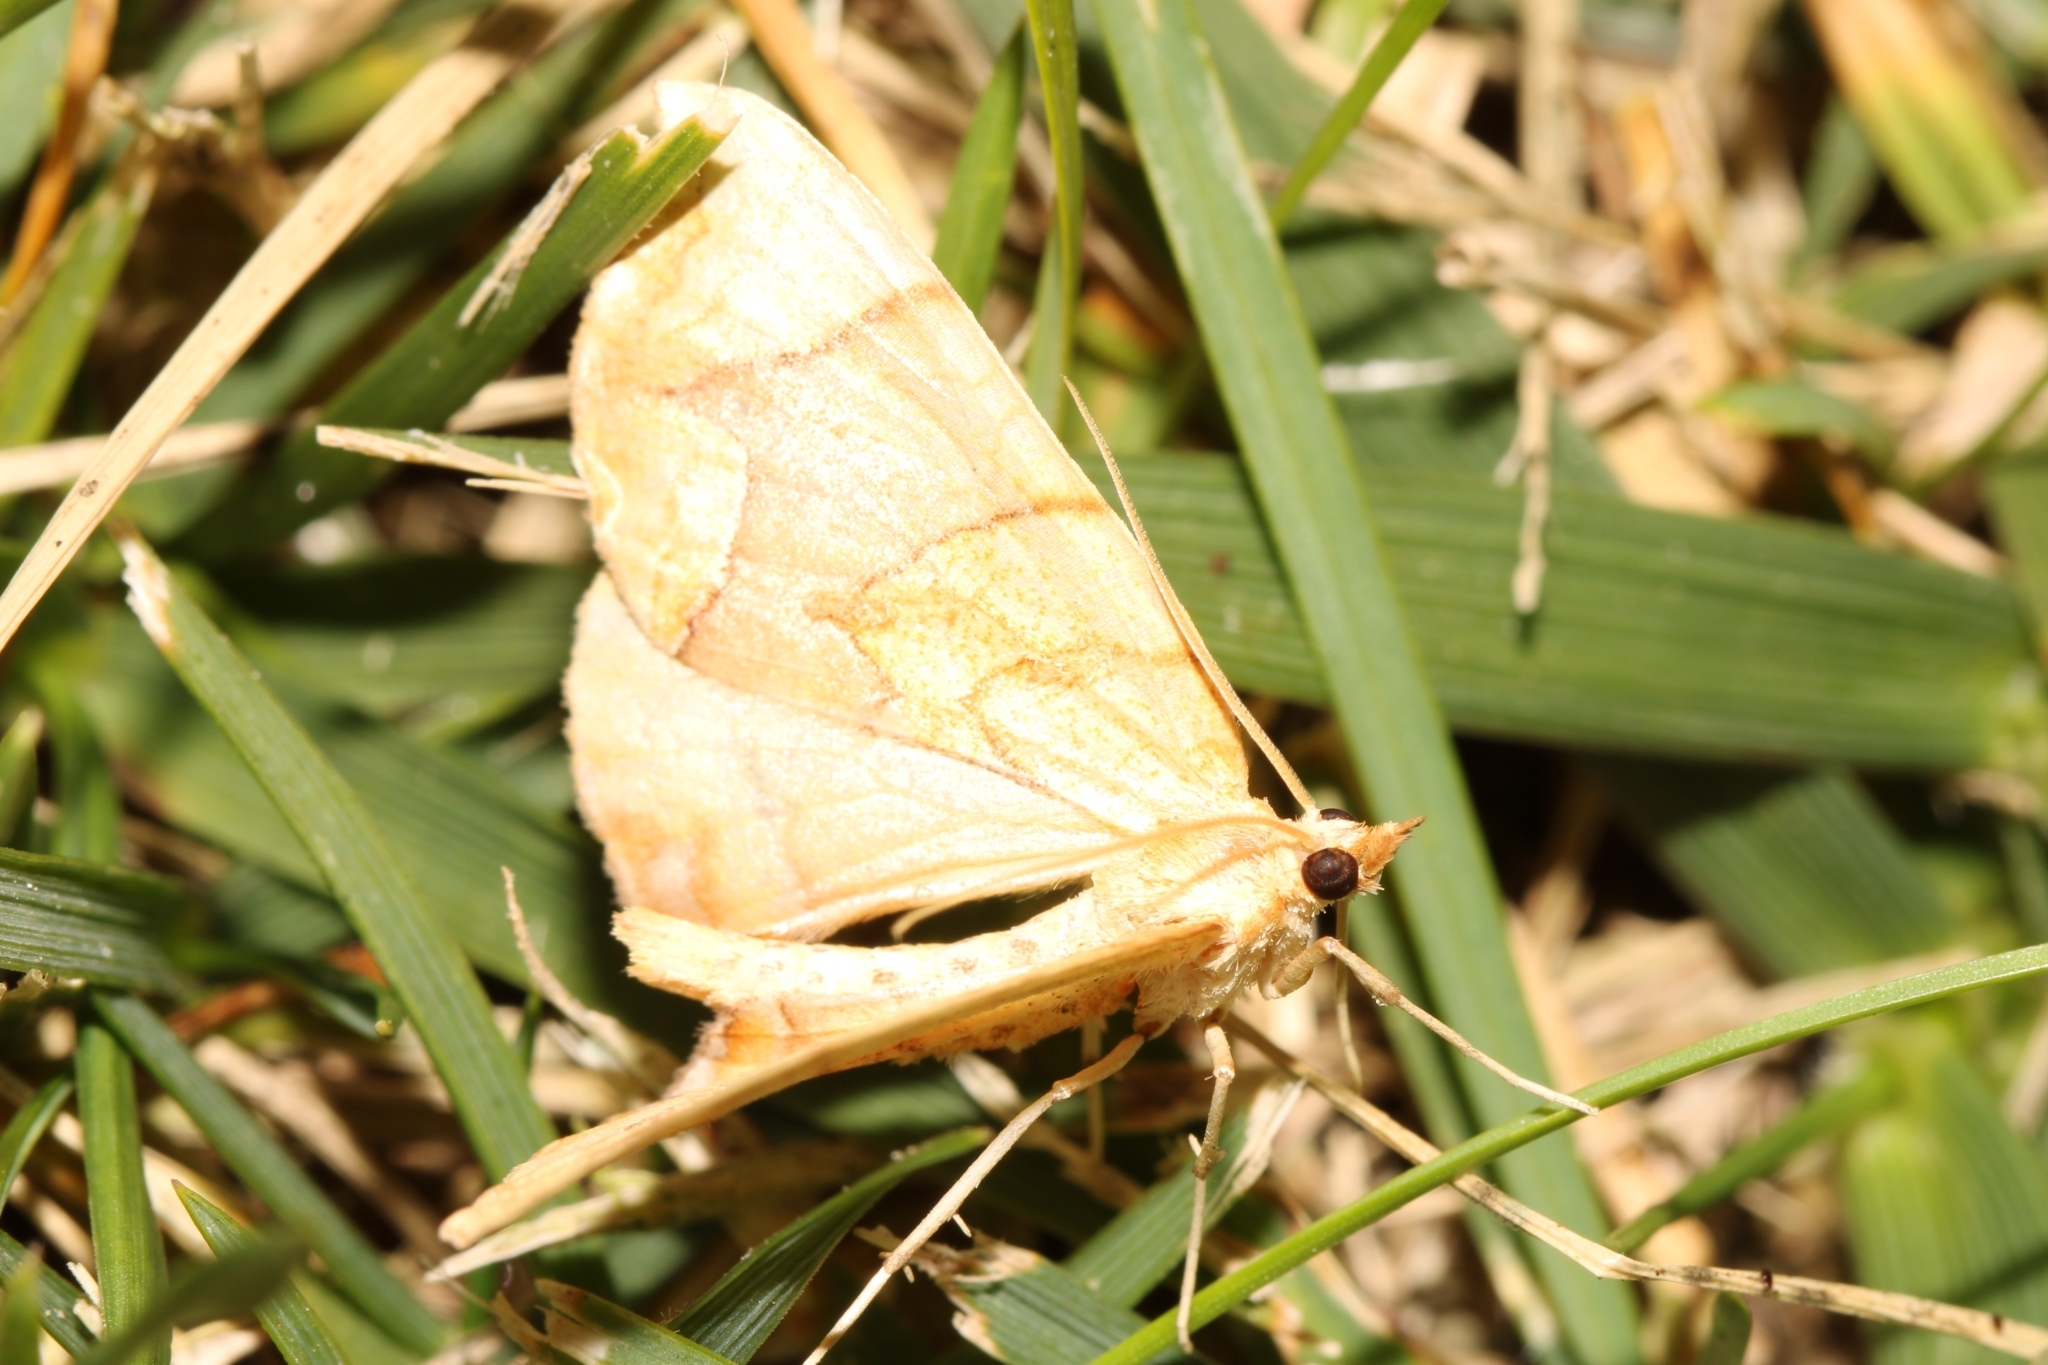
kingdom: Animalia
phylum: Arthropoda
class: Insecta
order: Lepidoptera
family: Geometridae
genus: Eulithis
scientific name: Eulithis
